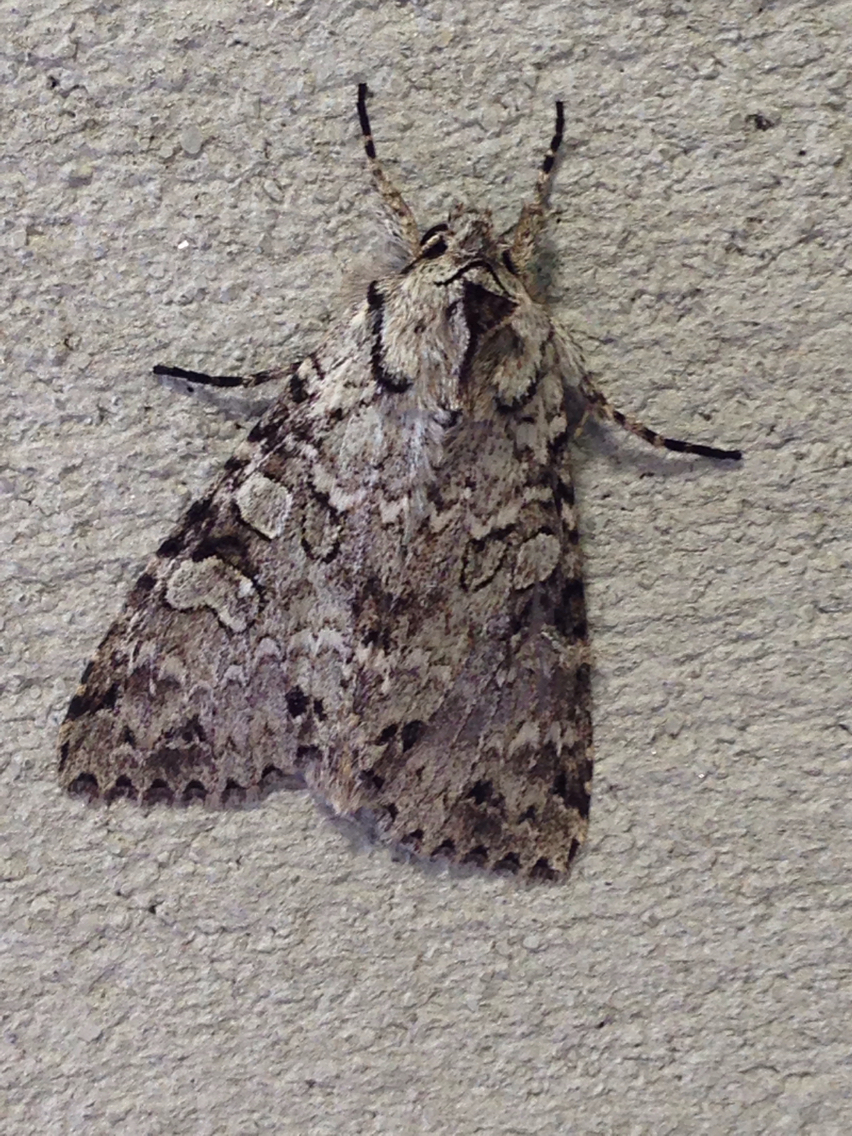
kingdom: Animalia
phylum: Arthropoda
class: Insecta
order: Lepidoptera
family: Noctuidae
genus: Polia
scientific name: Polia nimbosa
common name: Stormy arches
